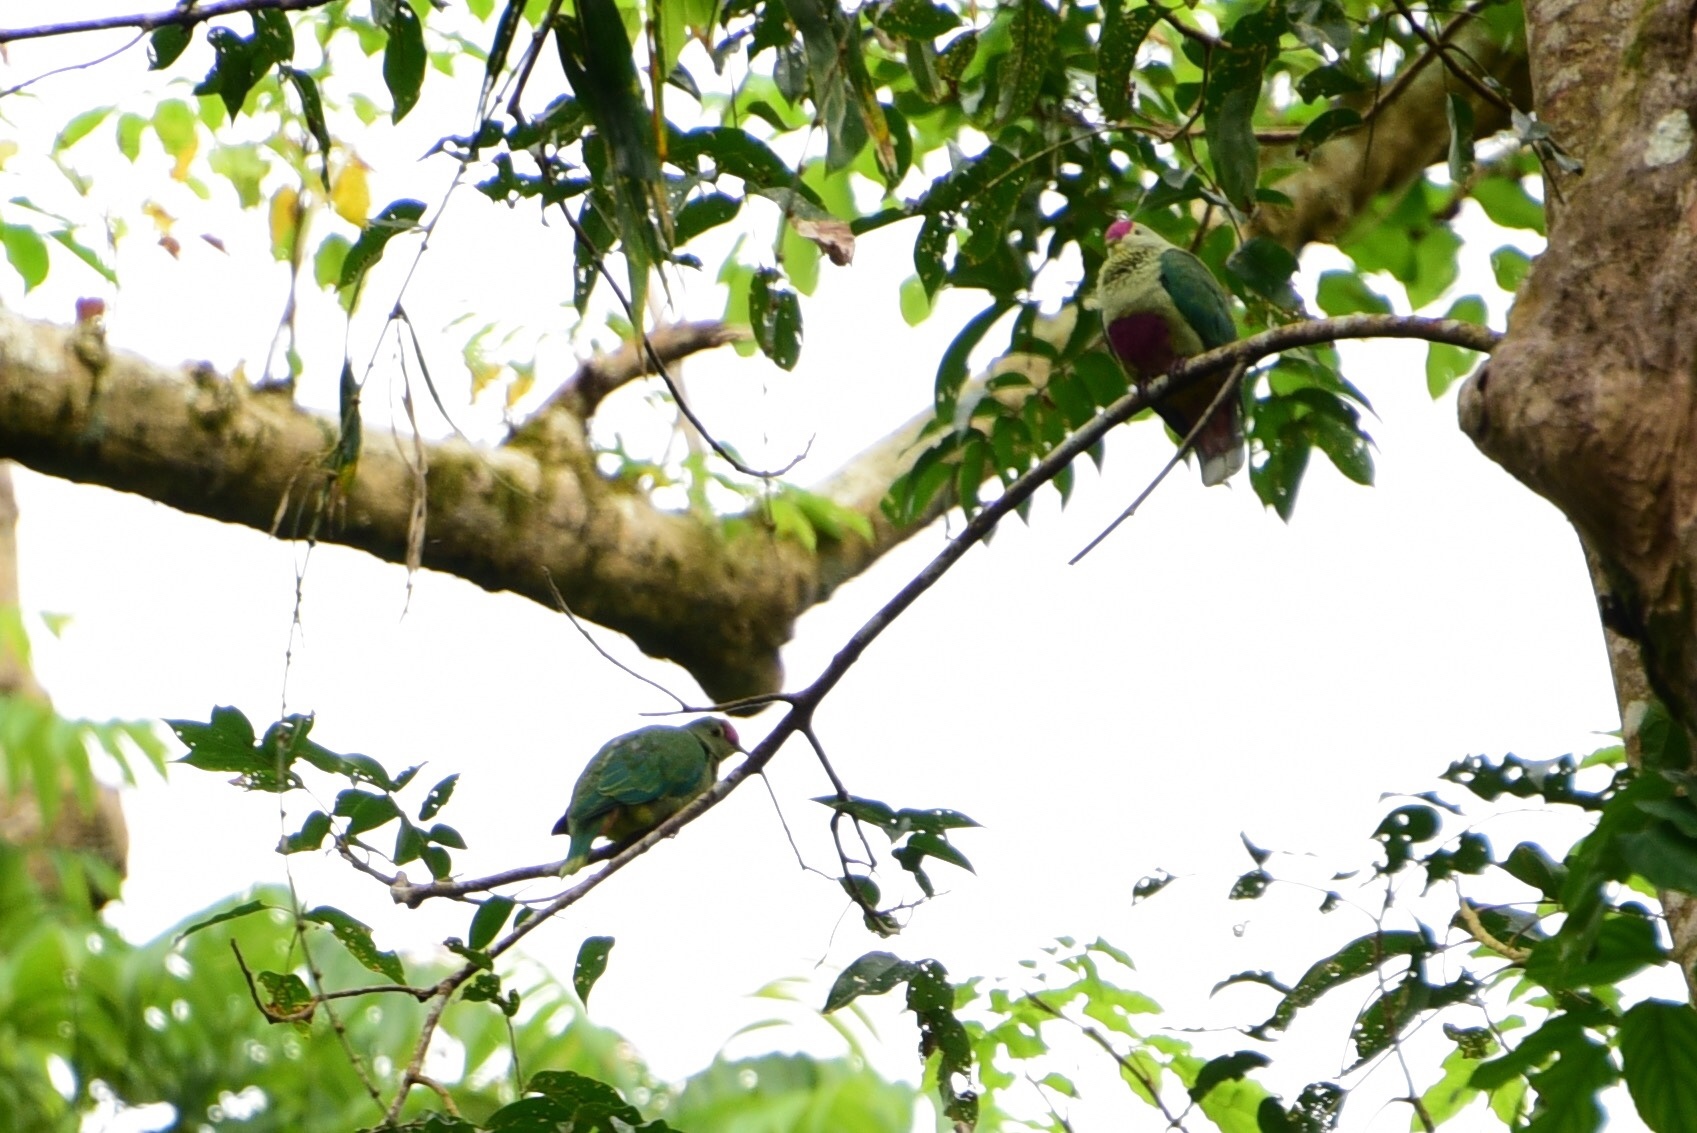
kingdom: Animalia
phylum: Chordata
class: Aves
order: Columbiformes
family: Columbidae
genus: Ptilinopus
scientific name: Ptilinopus greyi
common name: Red-bellied fruit-dove
